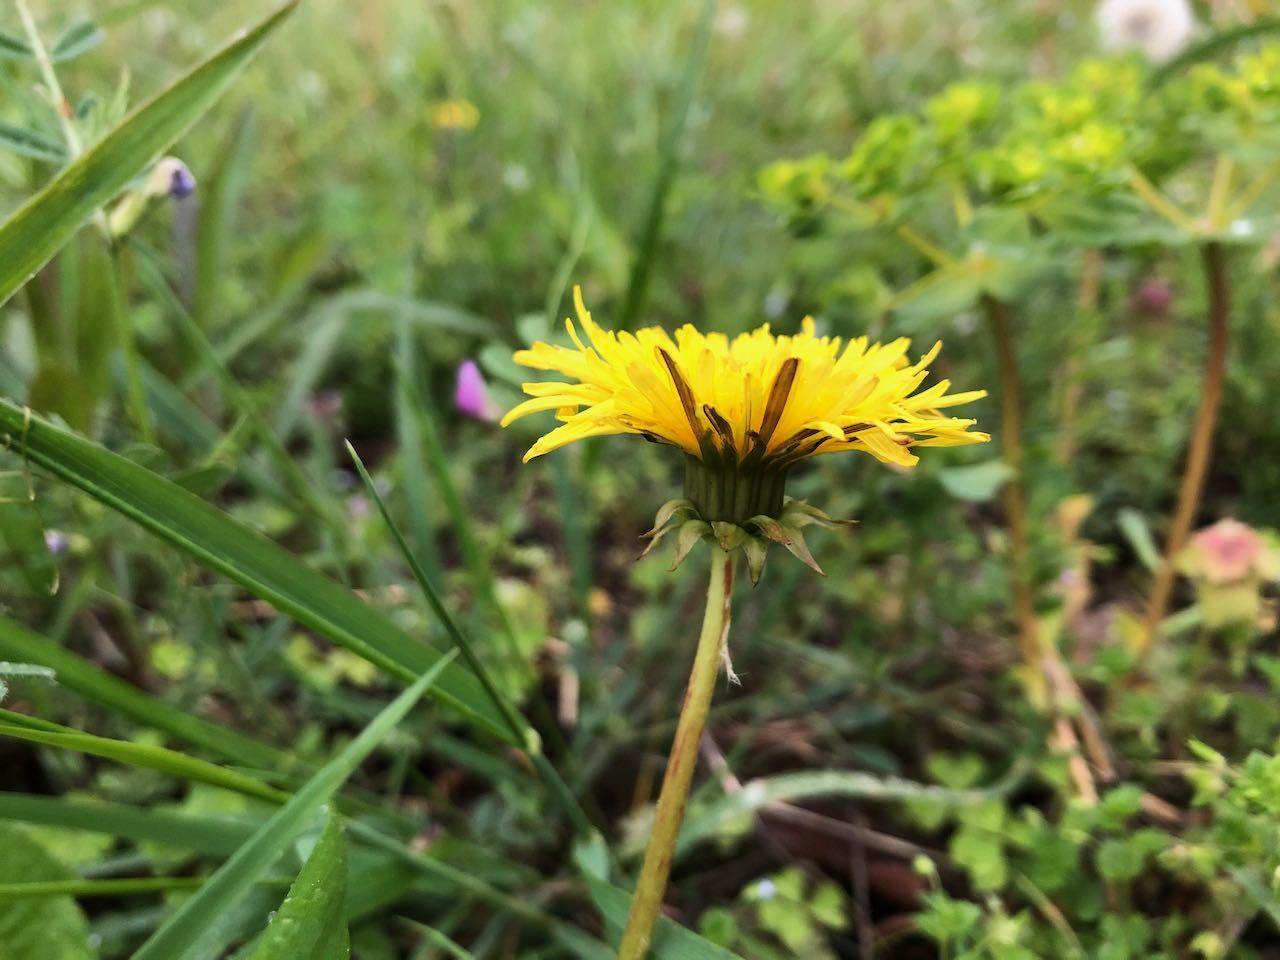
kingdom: Plantae
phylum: Tracheophyta
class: Magnoliopsida
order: Asterales
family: Asteraceae
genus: Taraxacum
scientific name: Taraxacum officinale
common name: Common dandelion
